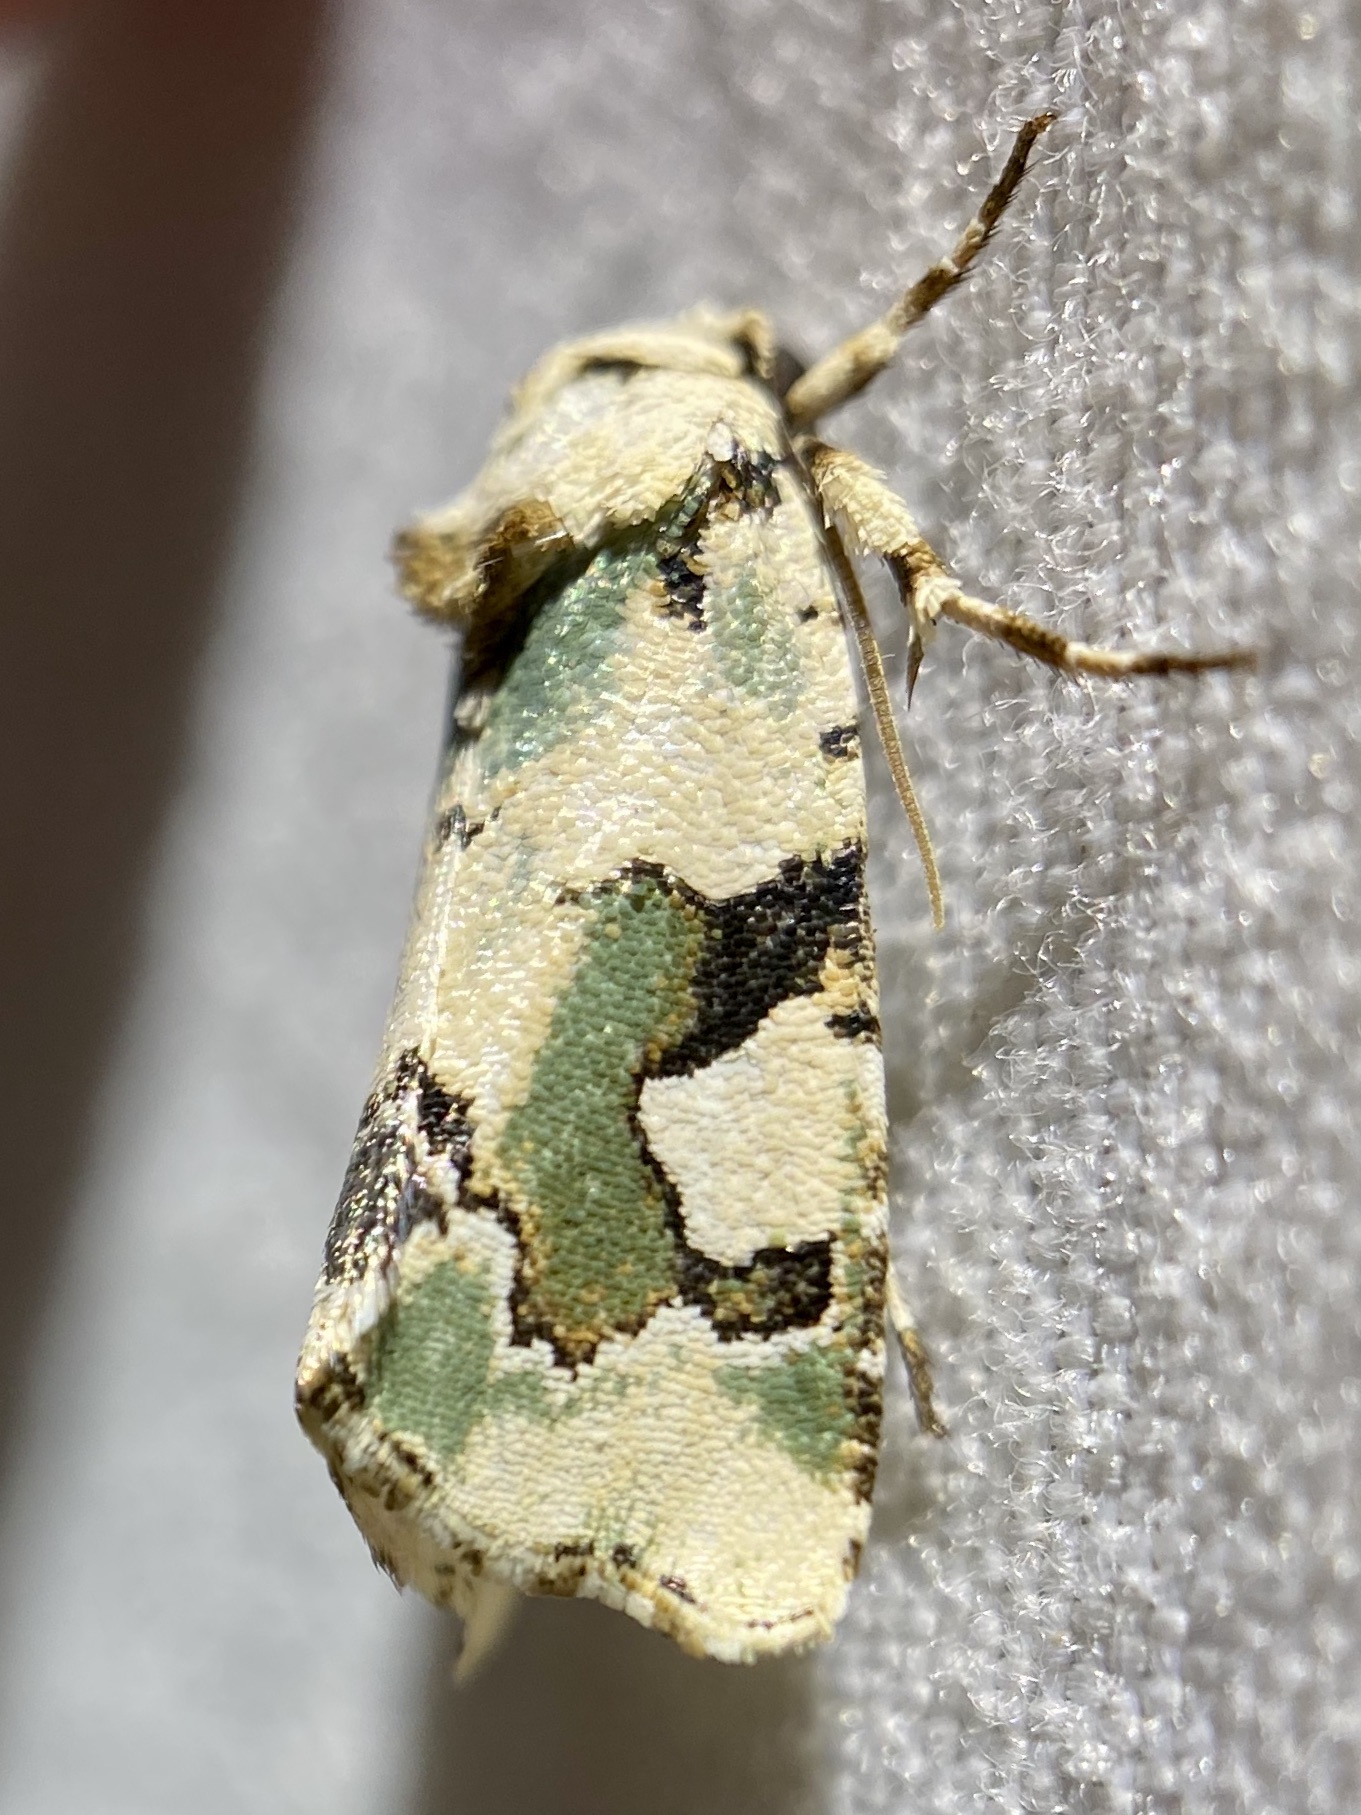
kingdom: Animalia
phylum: Arthropoda
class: Insecta
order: Lepidoptera
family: Noctuidae
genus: Emarginea
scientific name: Emarginea percara
